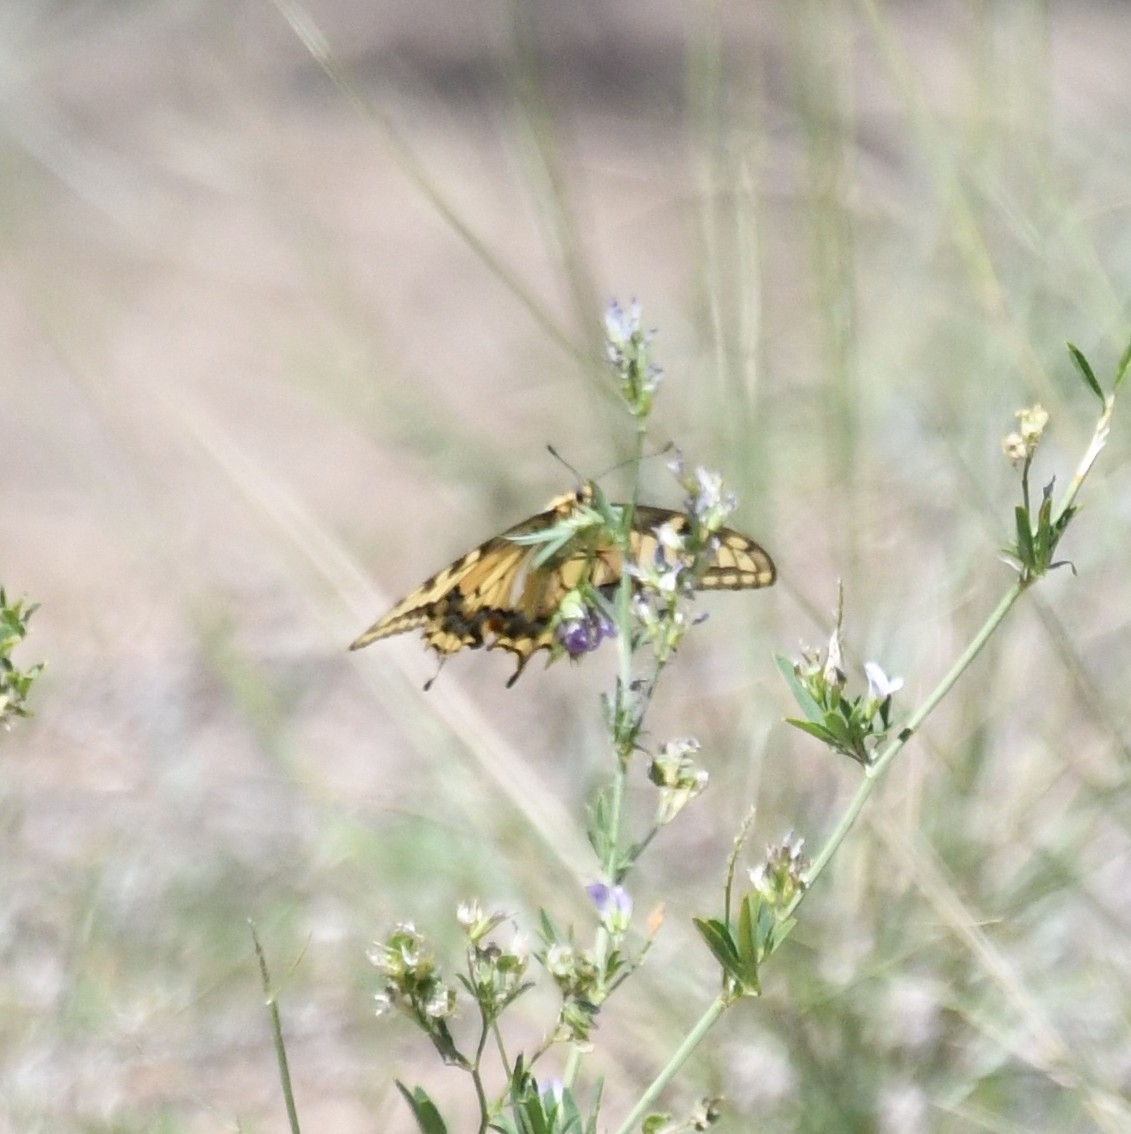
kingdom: Animalia
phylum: Arthropoda
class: Insecta
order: Lepidoptera
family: Papilionidae
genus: Papilio
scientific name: Papilio
